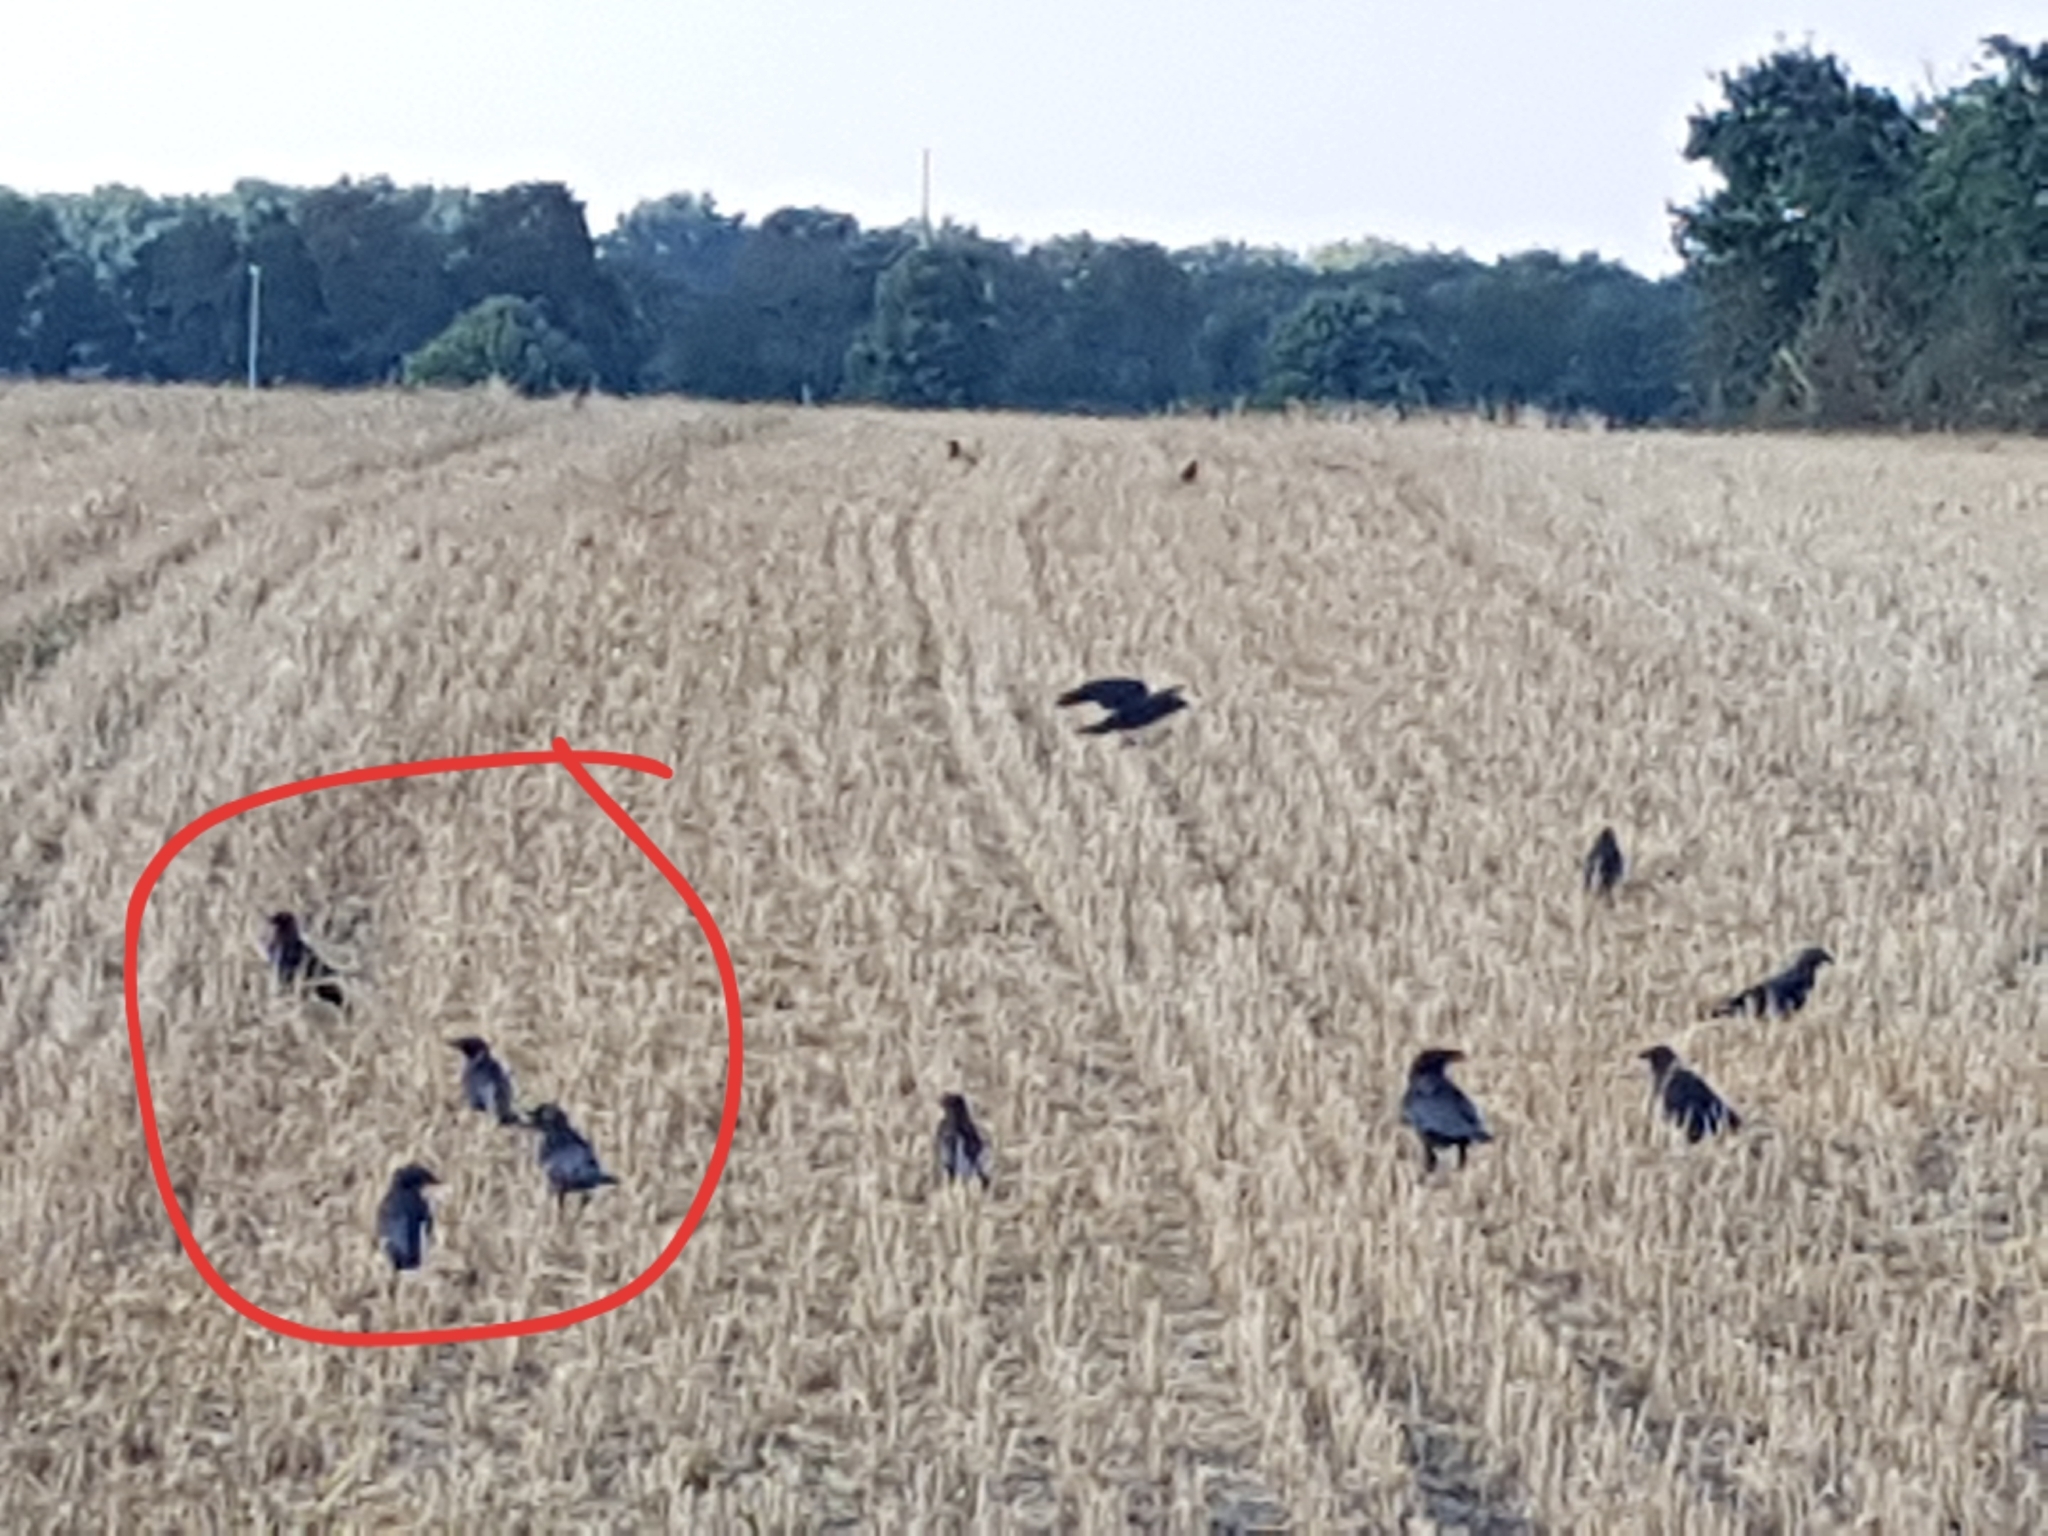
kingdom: Animalia
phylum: Chordata
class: Aves
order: Passeriformes
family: Corvidae
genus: Coloeus
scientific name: Coloeus monedula
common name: Western jackdaw
